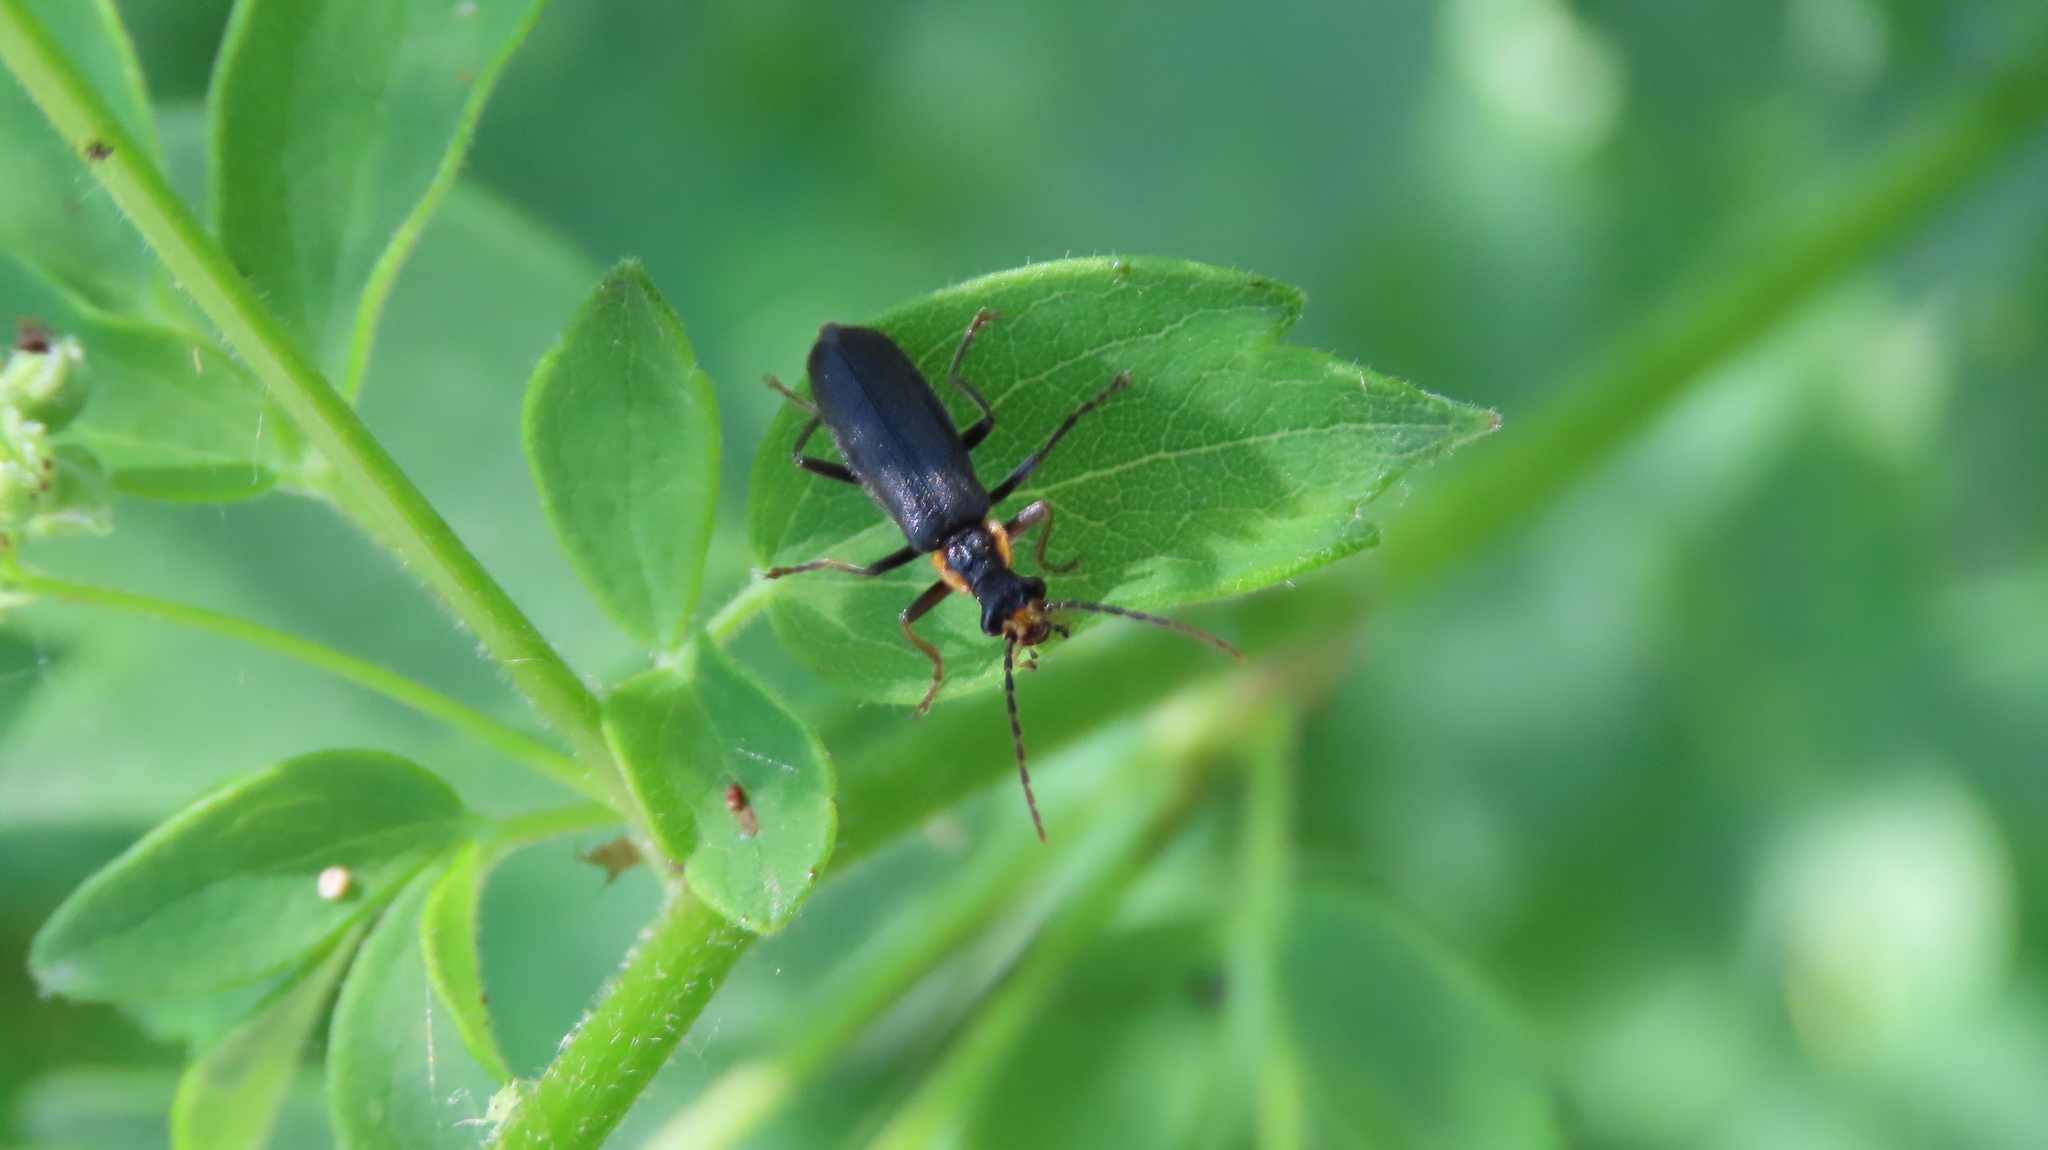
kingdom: Animalia
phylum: Arthropoda
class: Insecta
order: Coleoptera
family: Cantharidae
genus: Podabrus
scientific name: Podabrus rugosulus
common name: Wrinkled soldier beetle
